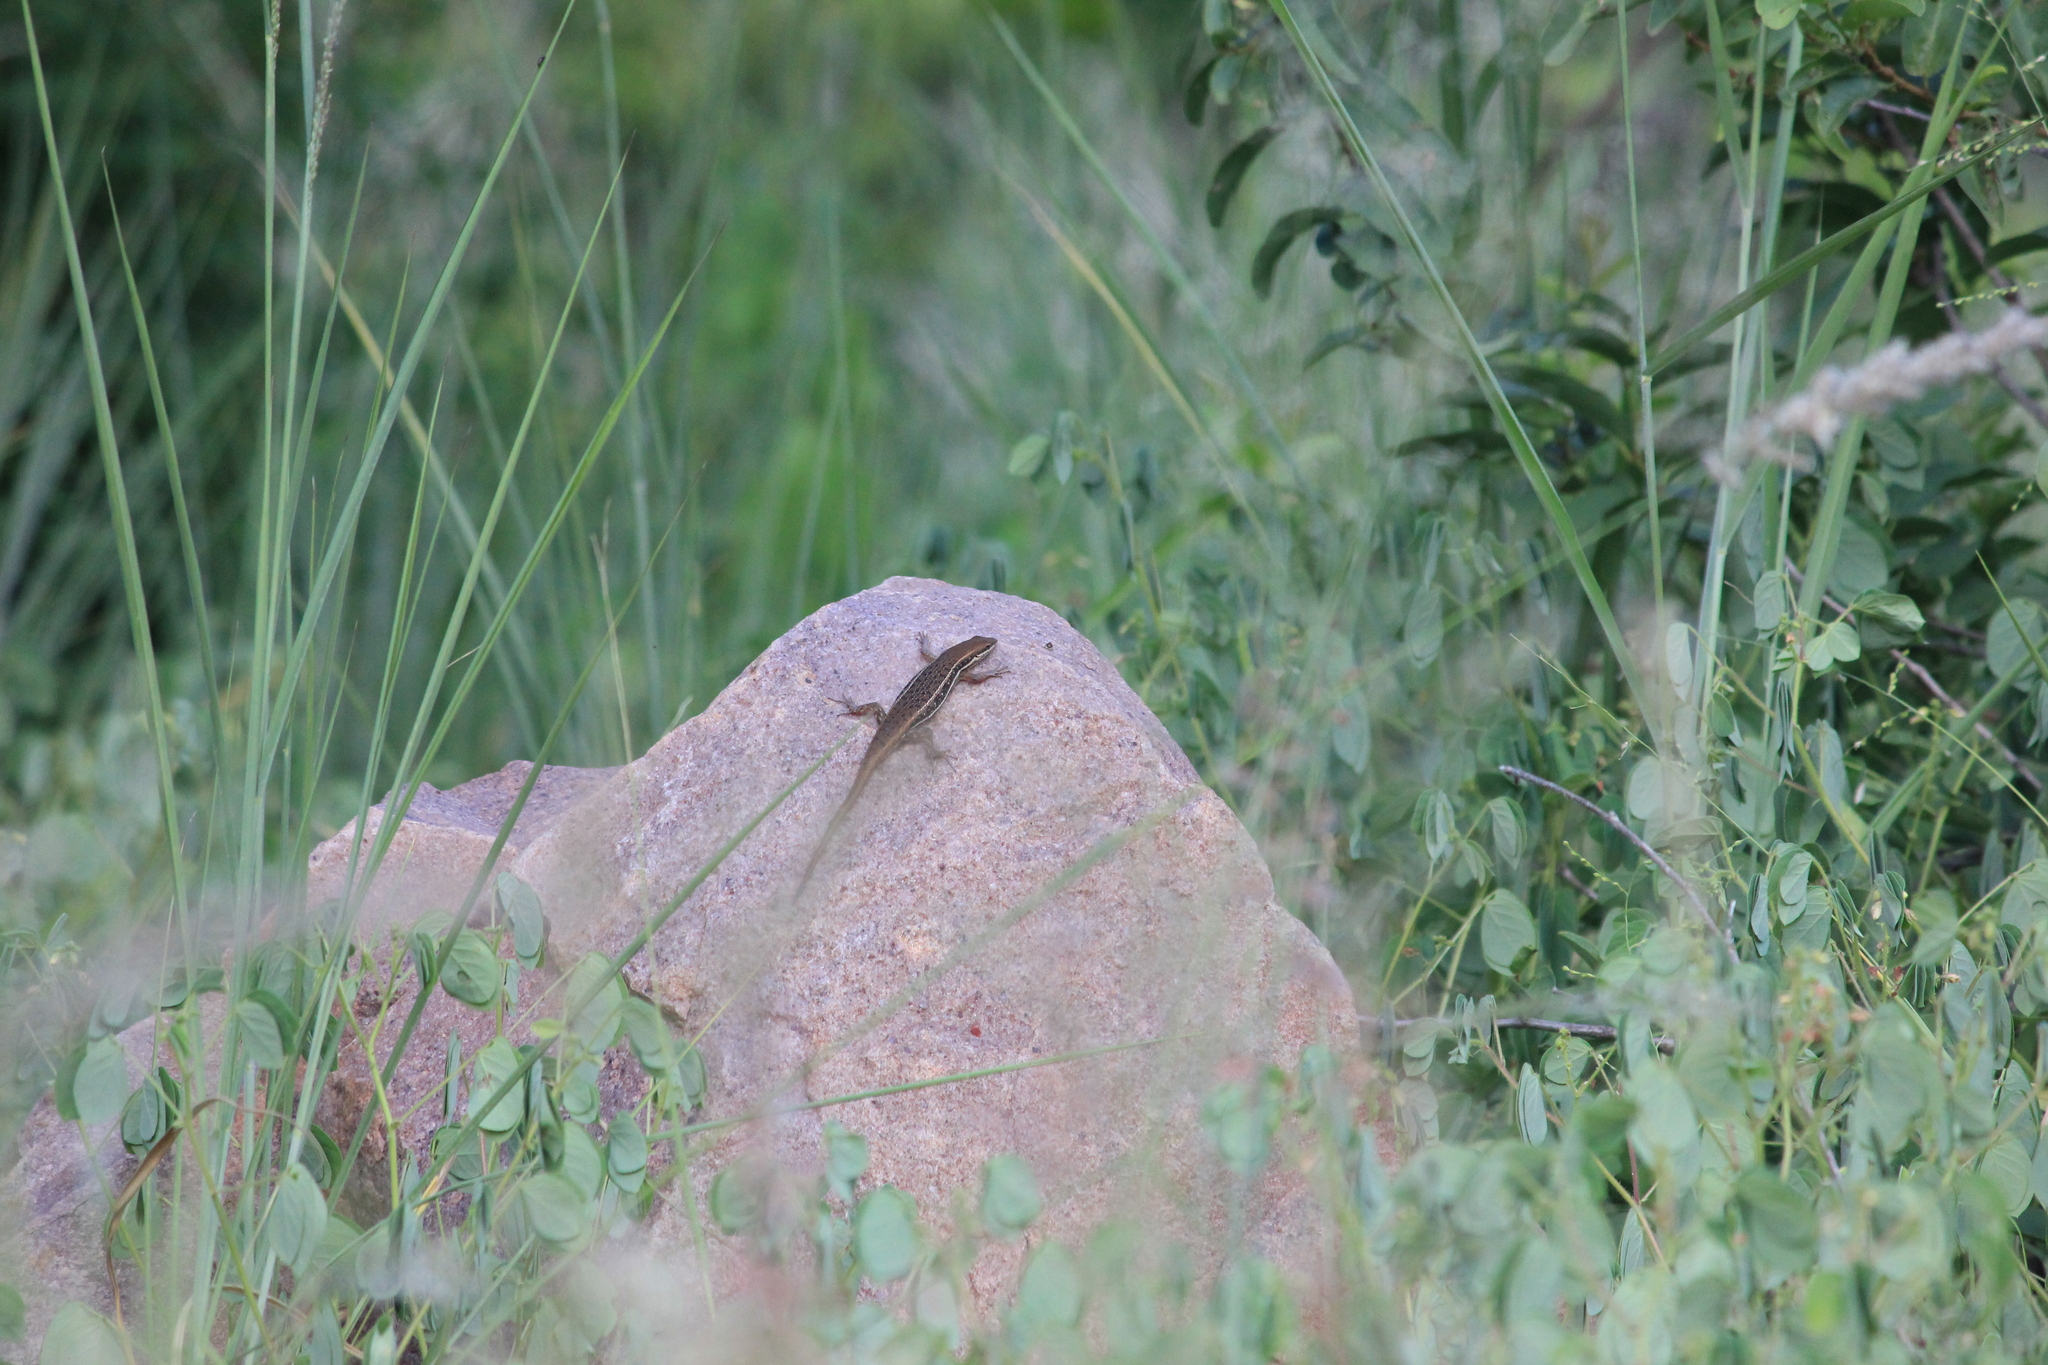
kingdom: Animalia
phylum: Chordata
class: Squamata
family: Scincidae
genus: Trachylepis
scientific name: Trachylepis damarana
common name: Damara skink
